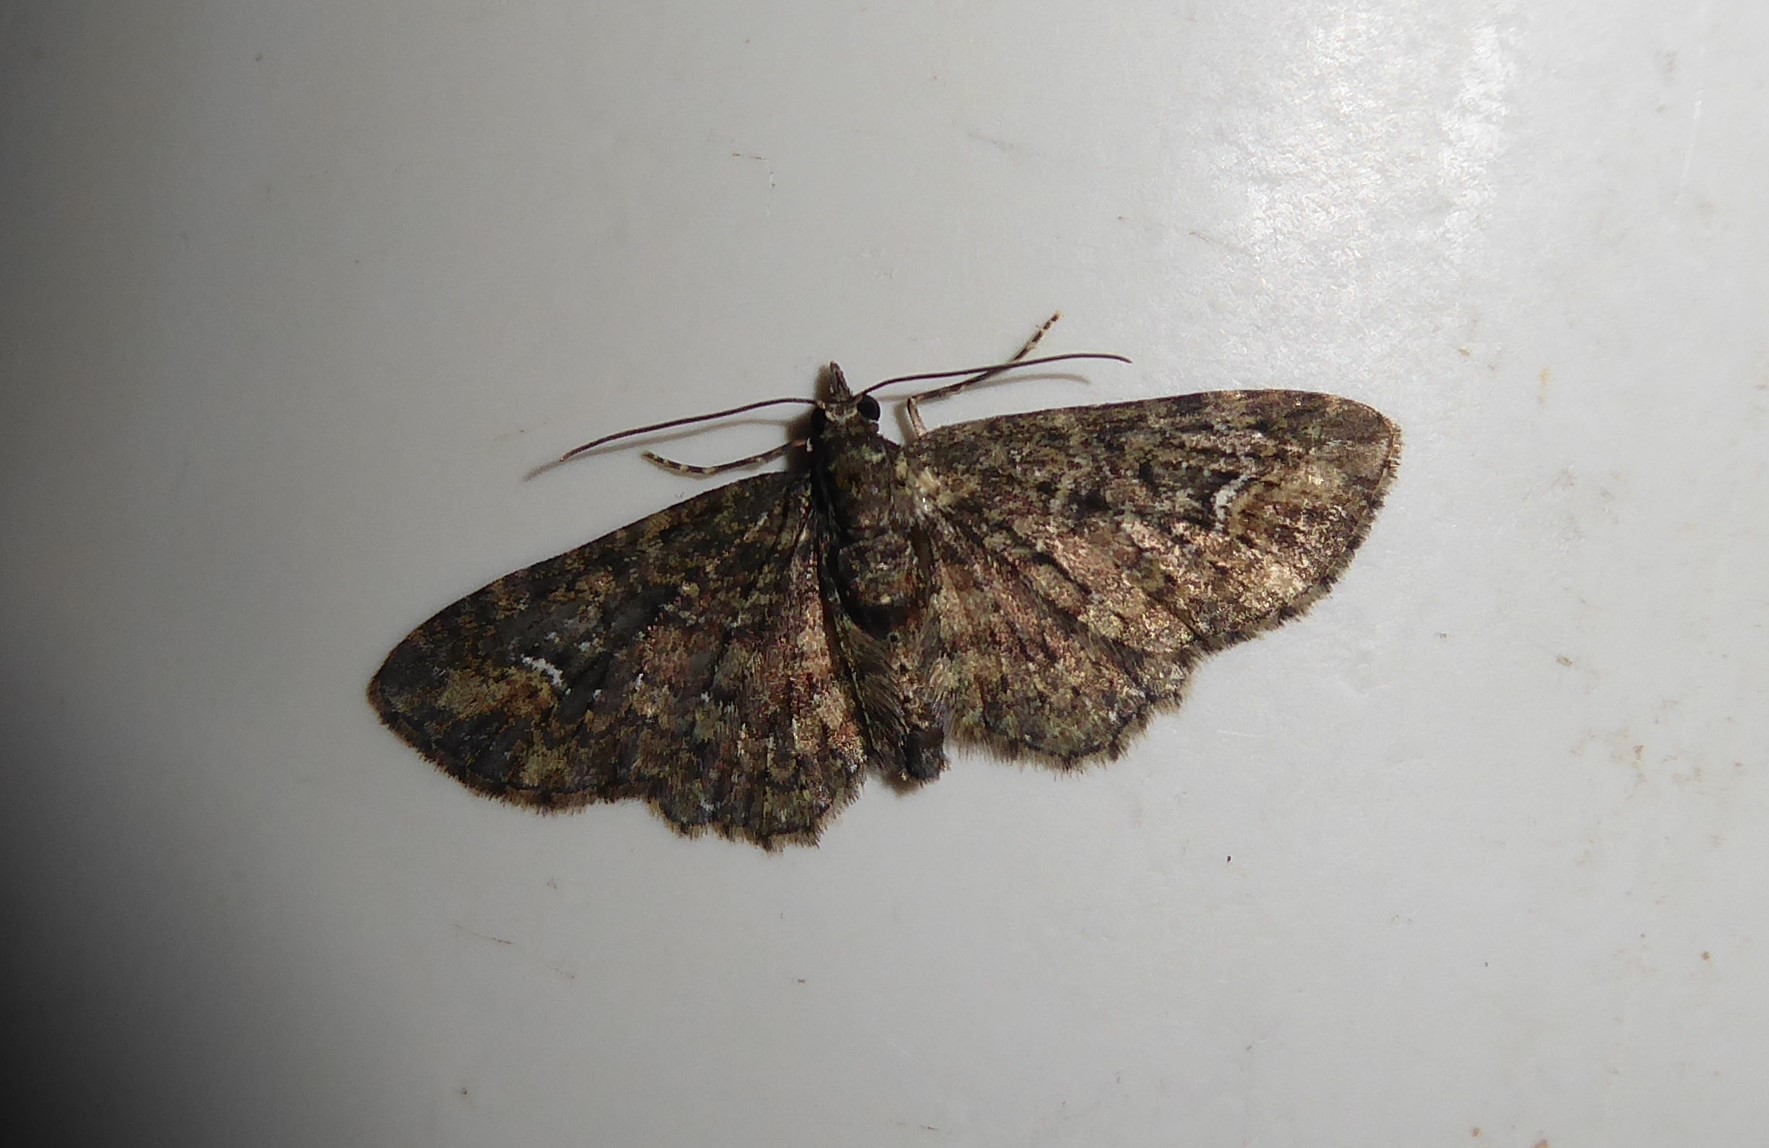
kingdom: Animalia
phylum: Arthropoda
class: Insecta
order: Lepidoptera
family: Geometridae
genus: Pasiphilodes
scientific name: Pasiphilodes testulata
